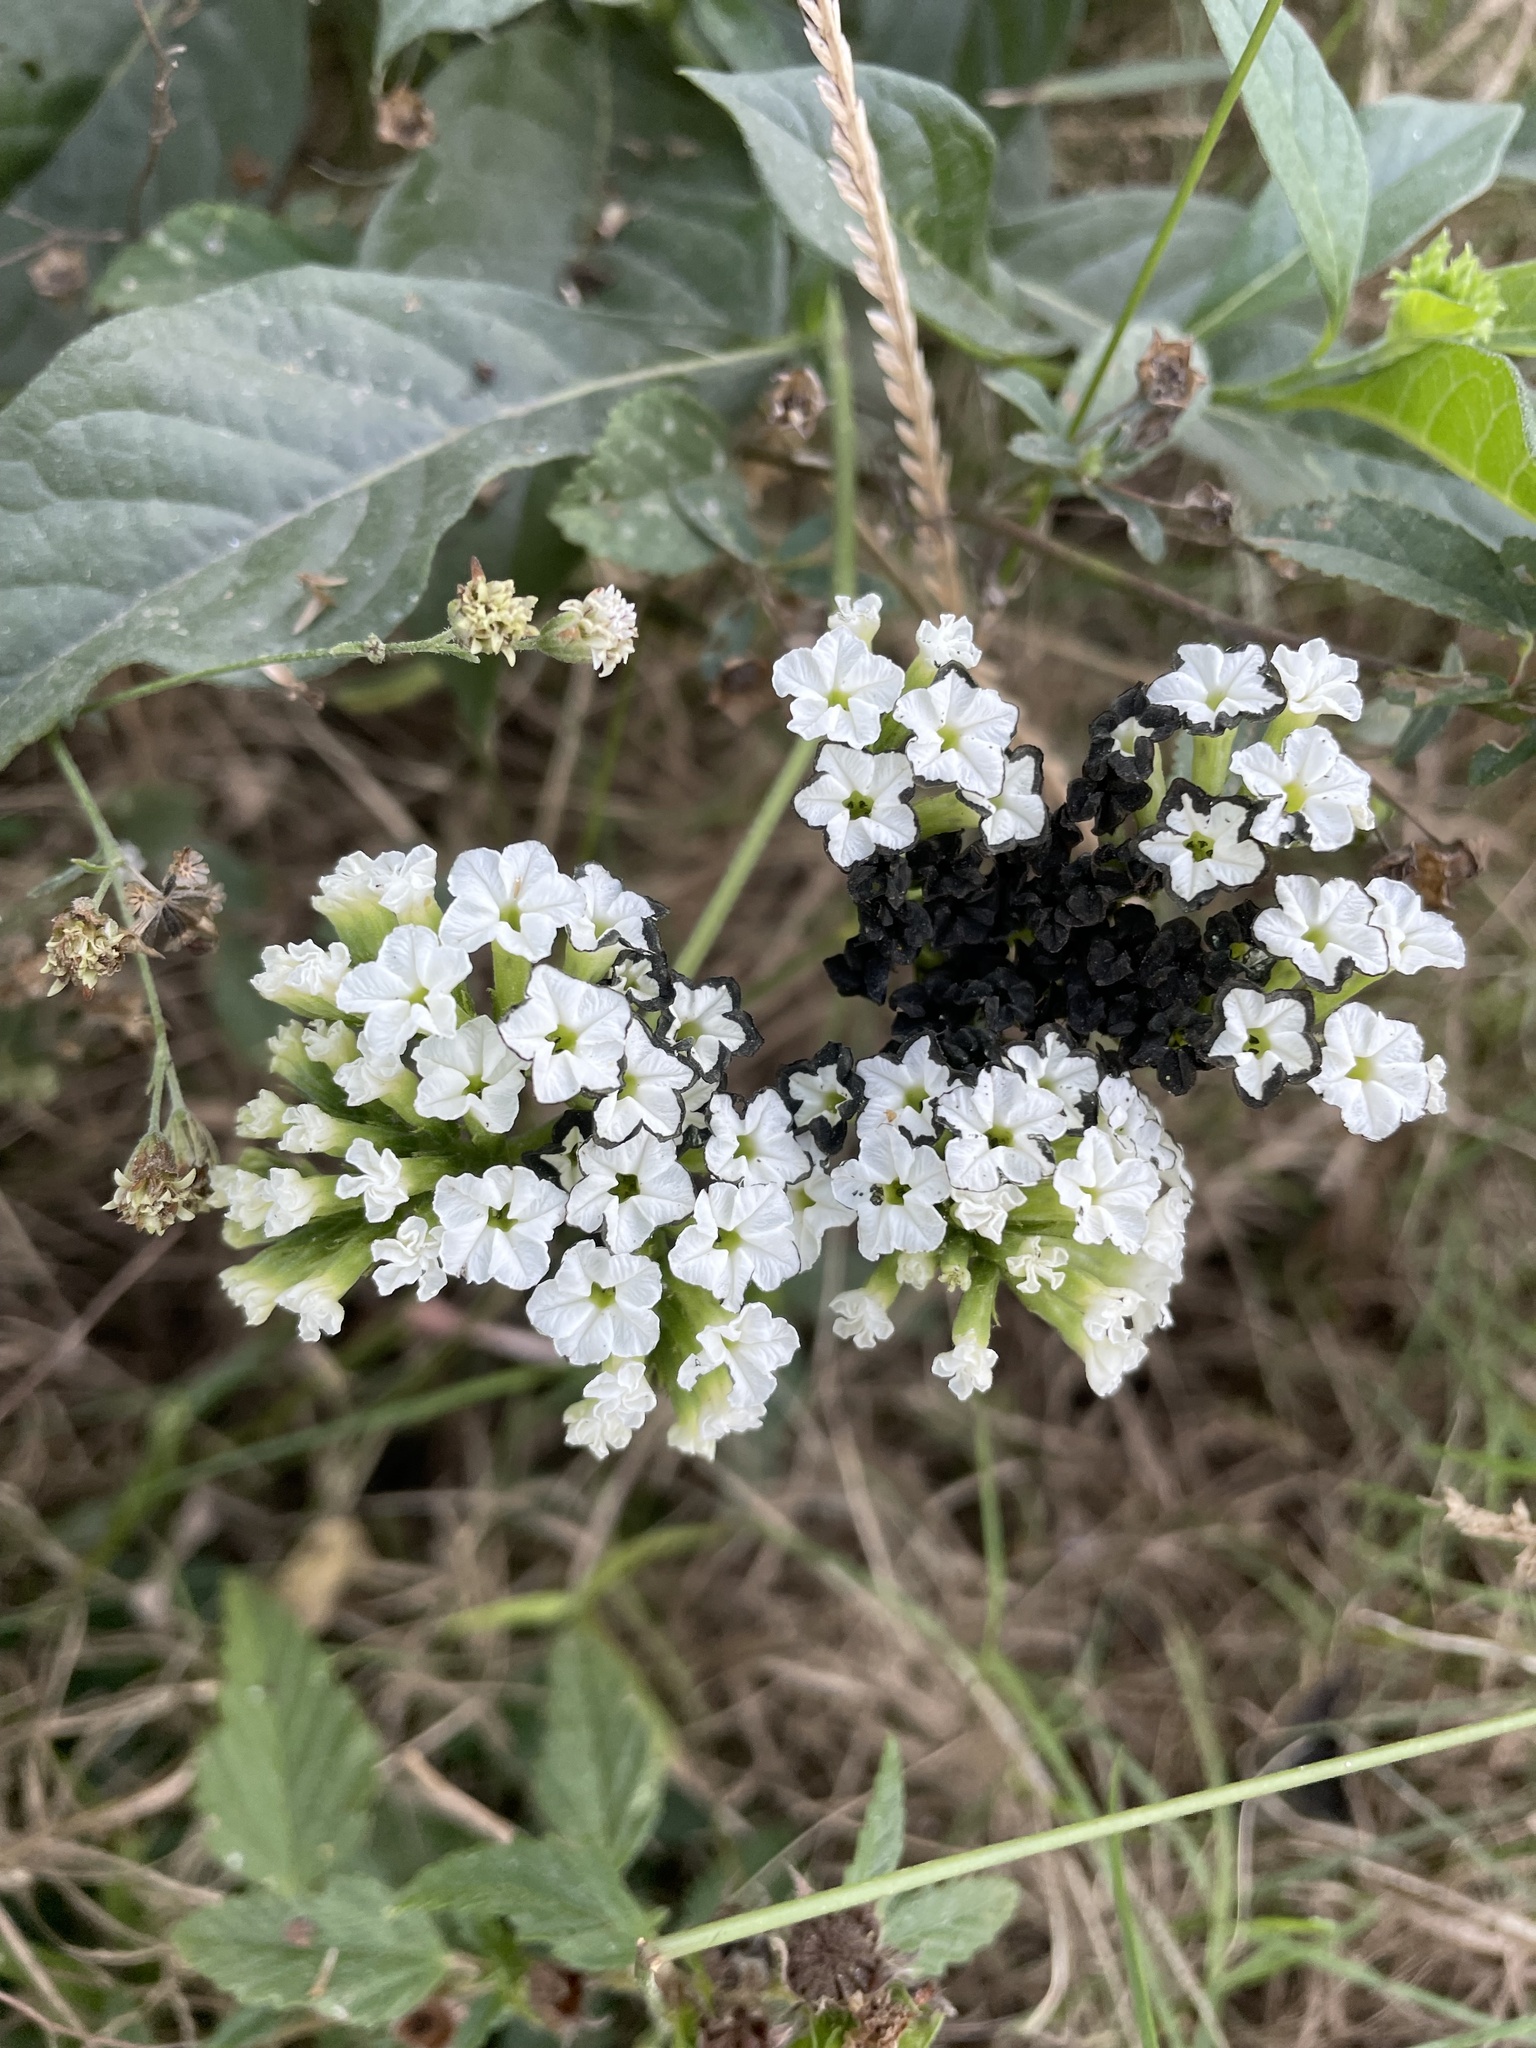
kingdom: Plantae
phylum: Tracheophyta
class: Magnoliopsida
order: Boraginales
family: Heliotropiaceae
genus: Tournefortia
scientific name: Tournefortia mutabilis
